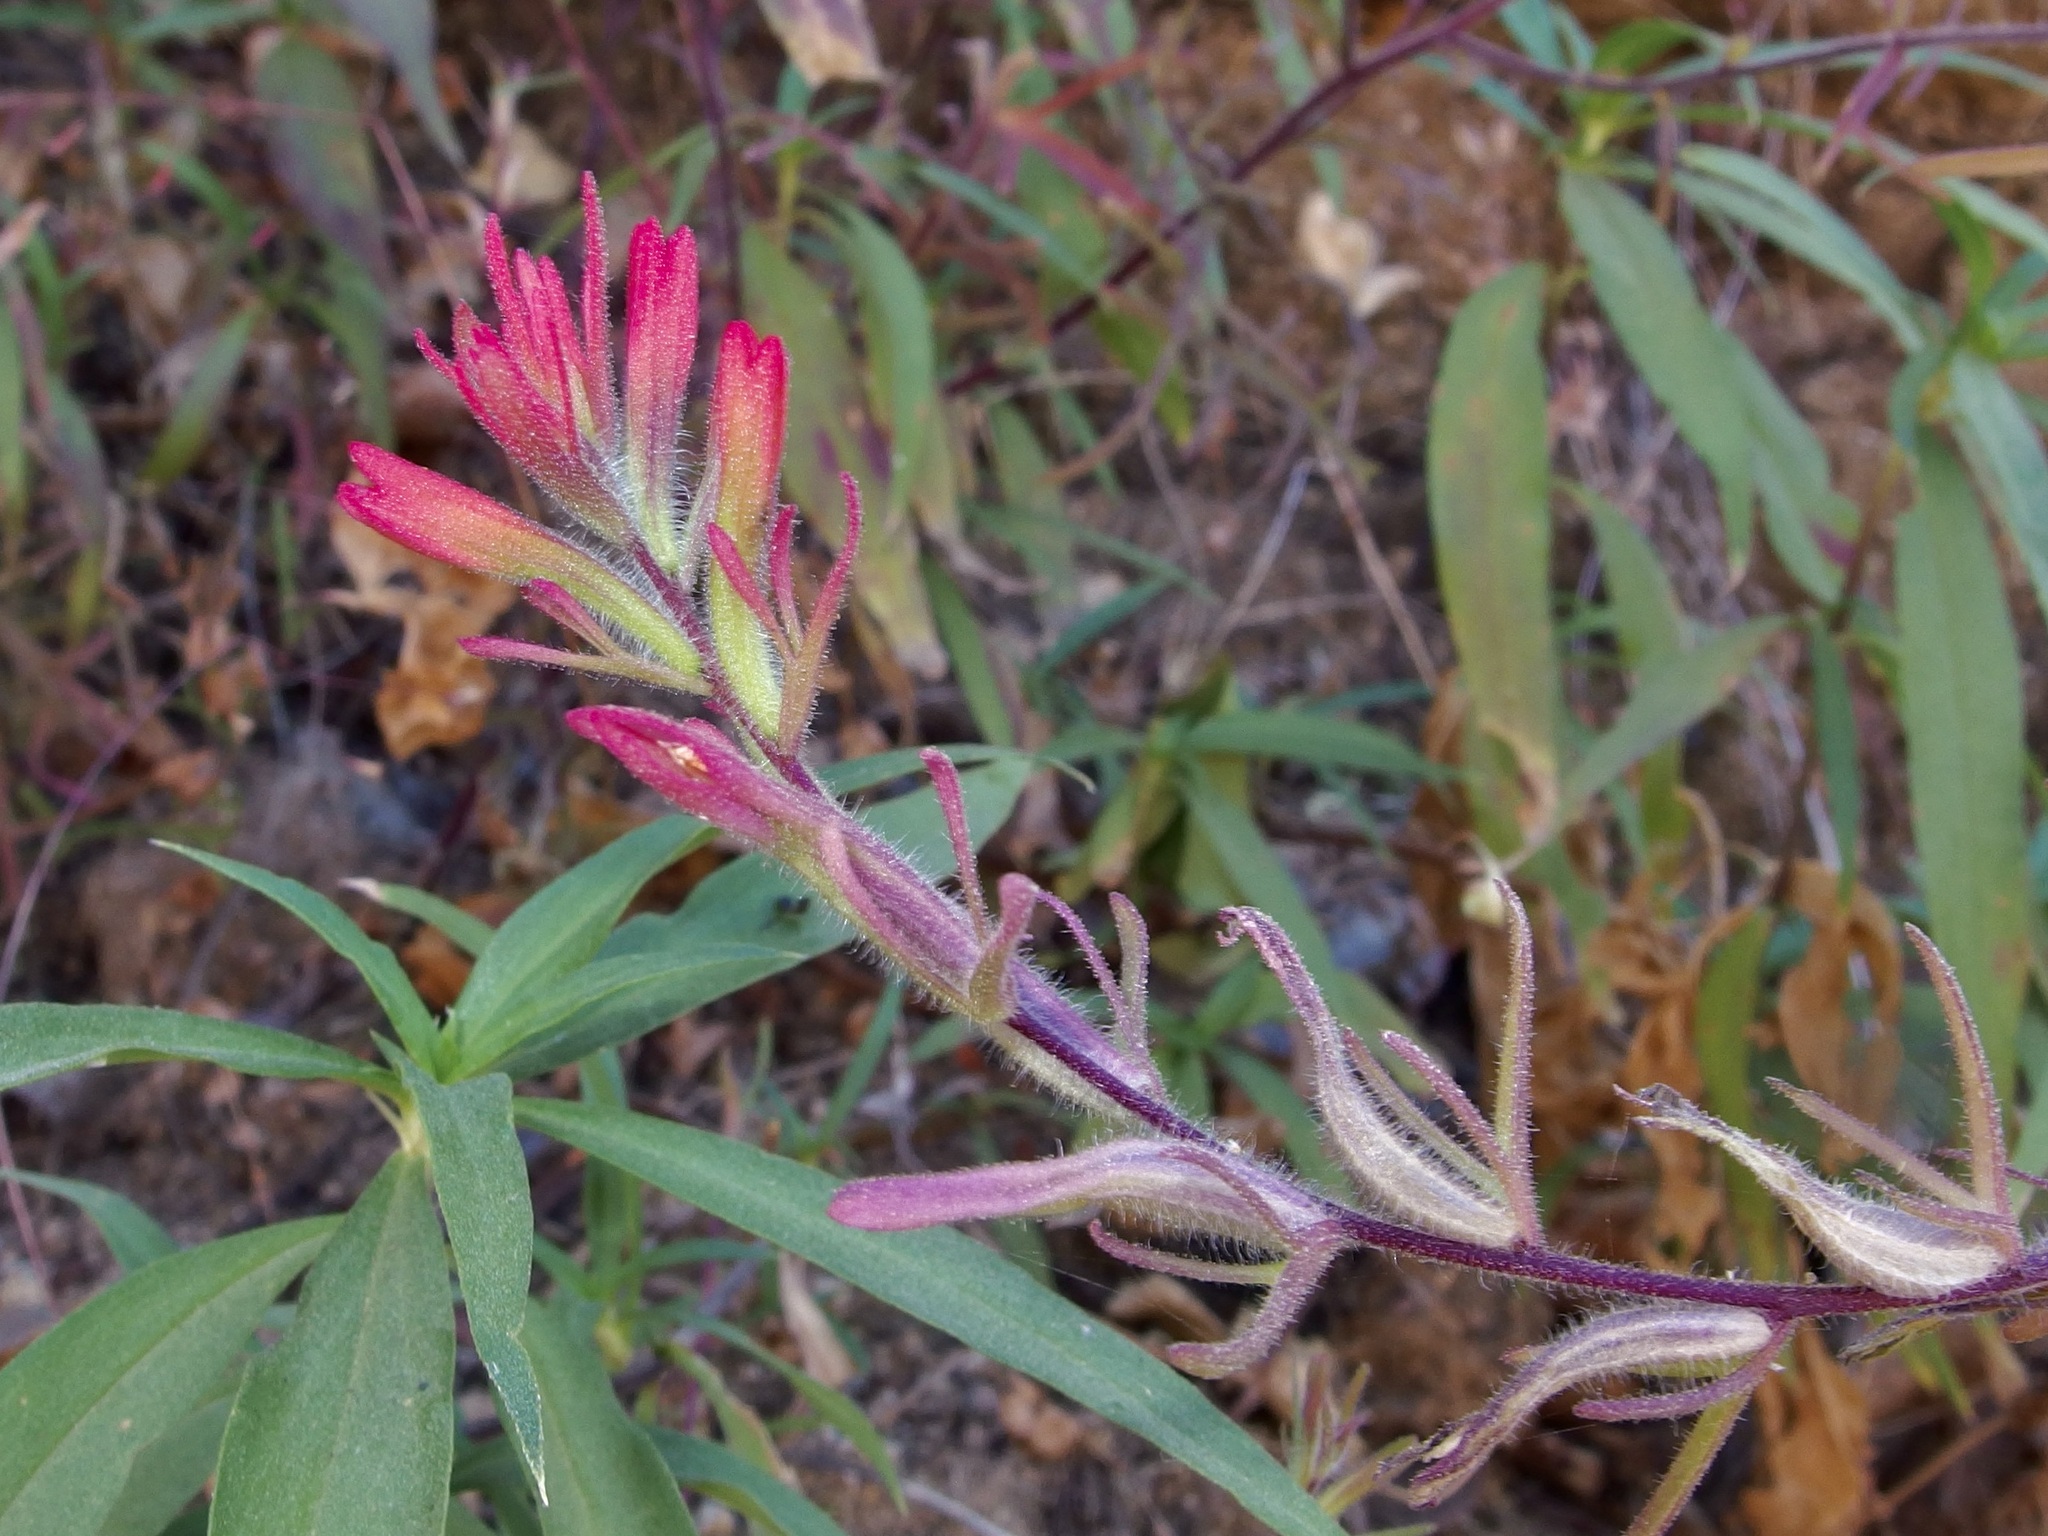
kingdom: Plantae
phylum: Tracheophyta
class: Magnoliopsida
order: Lamiales
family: Orobanchaceae
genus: Castilleja
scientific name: Castilleja bryantii
